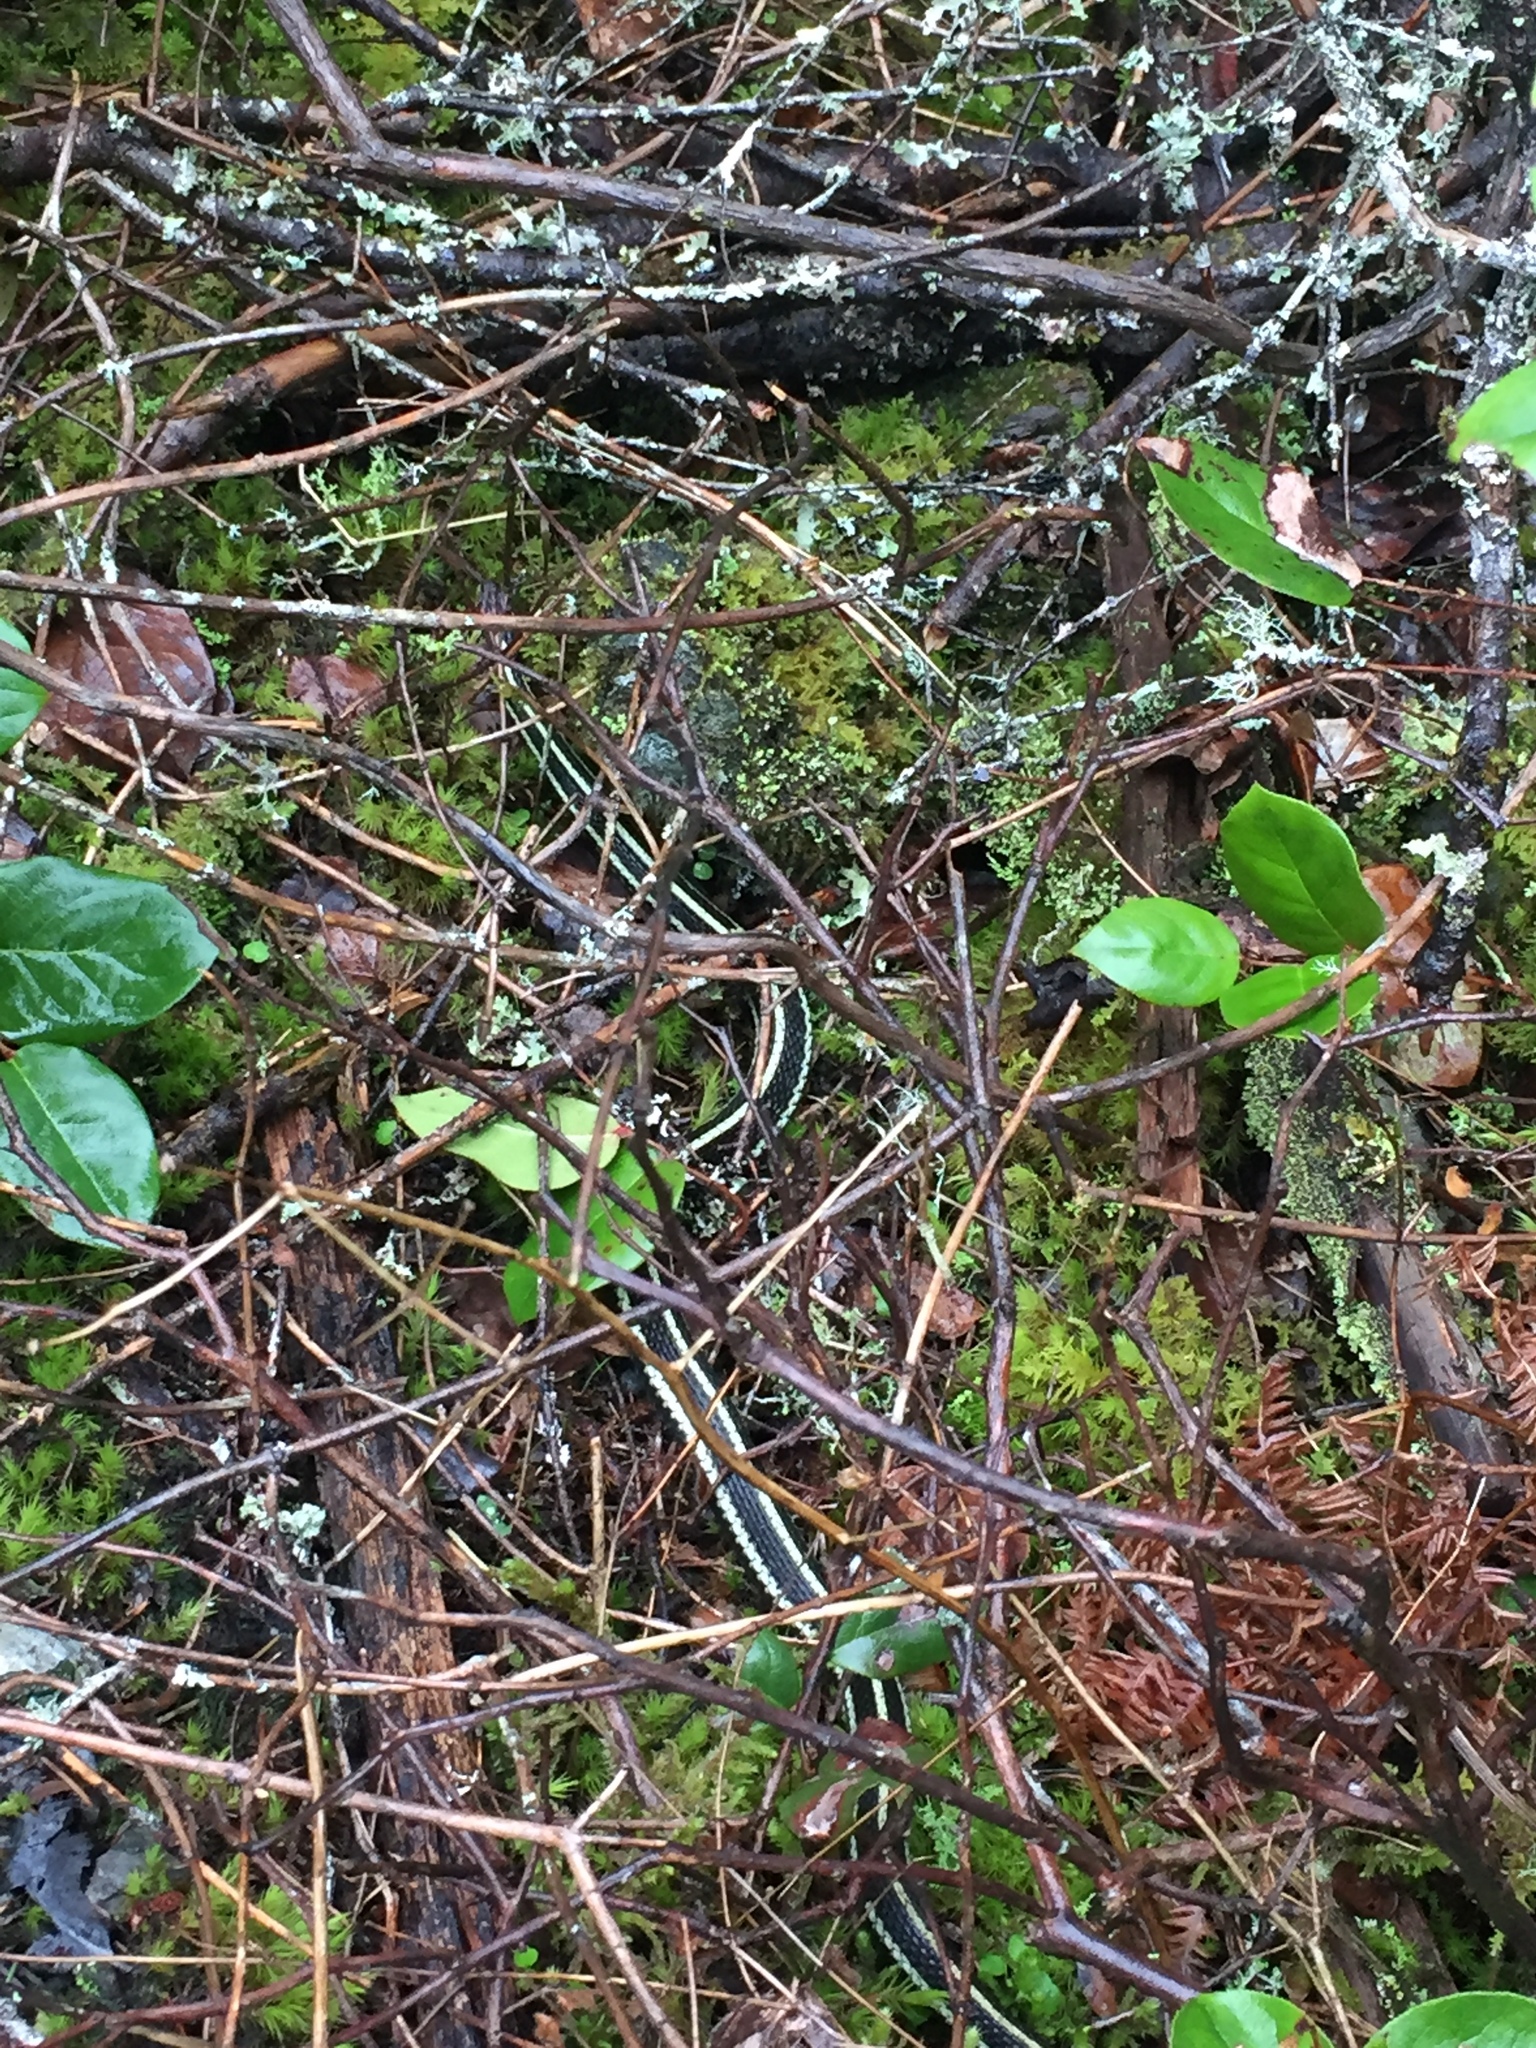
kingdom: Animalia
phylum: Chordata
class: Squamata
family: Colubridae
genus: Thamnophis
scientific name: Thamnophis sirtalis
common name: Common garter snake
